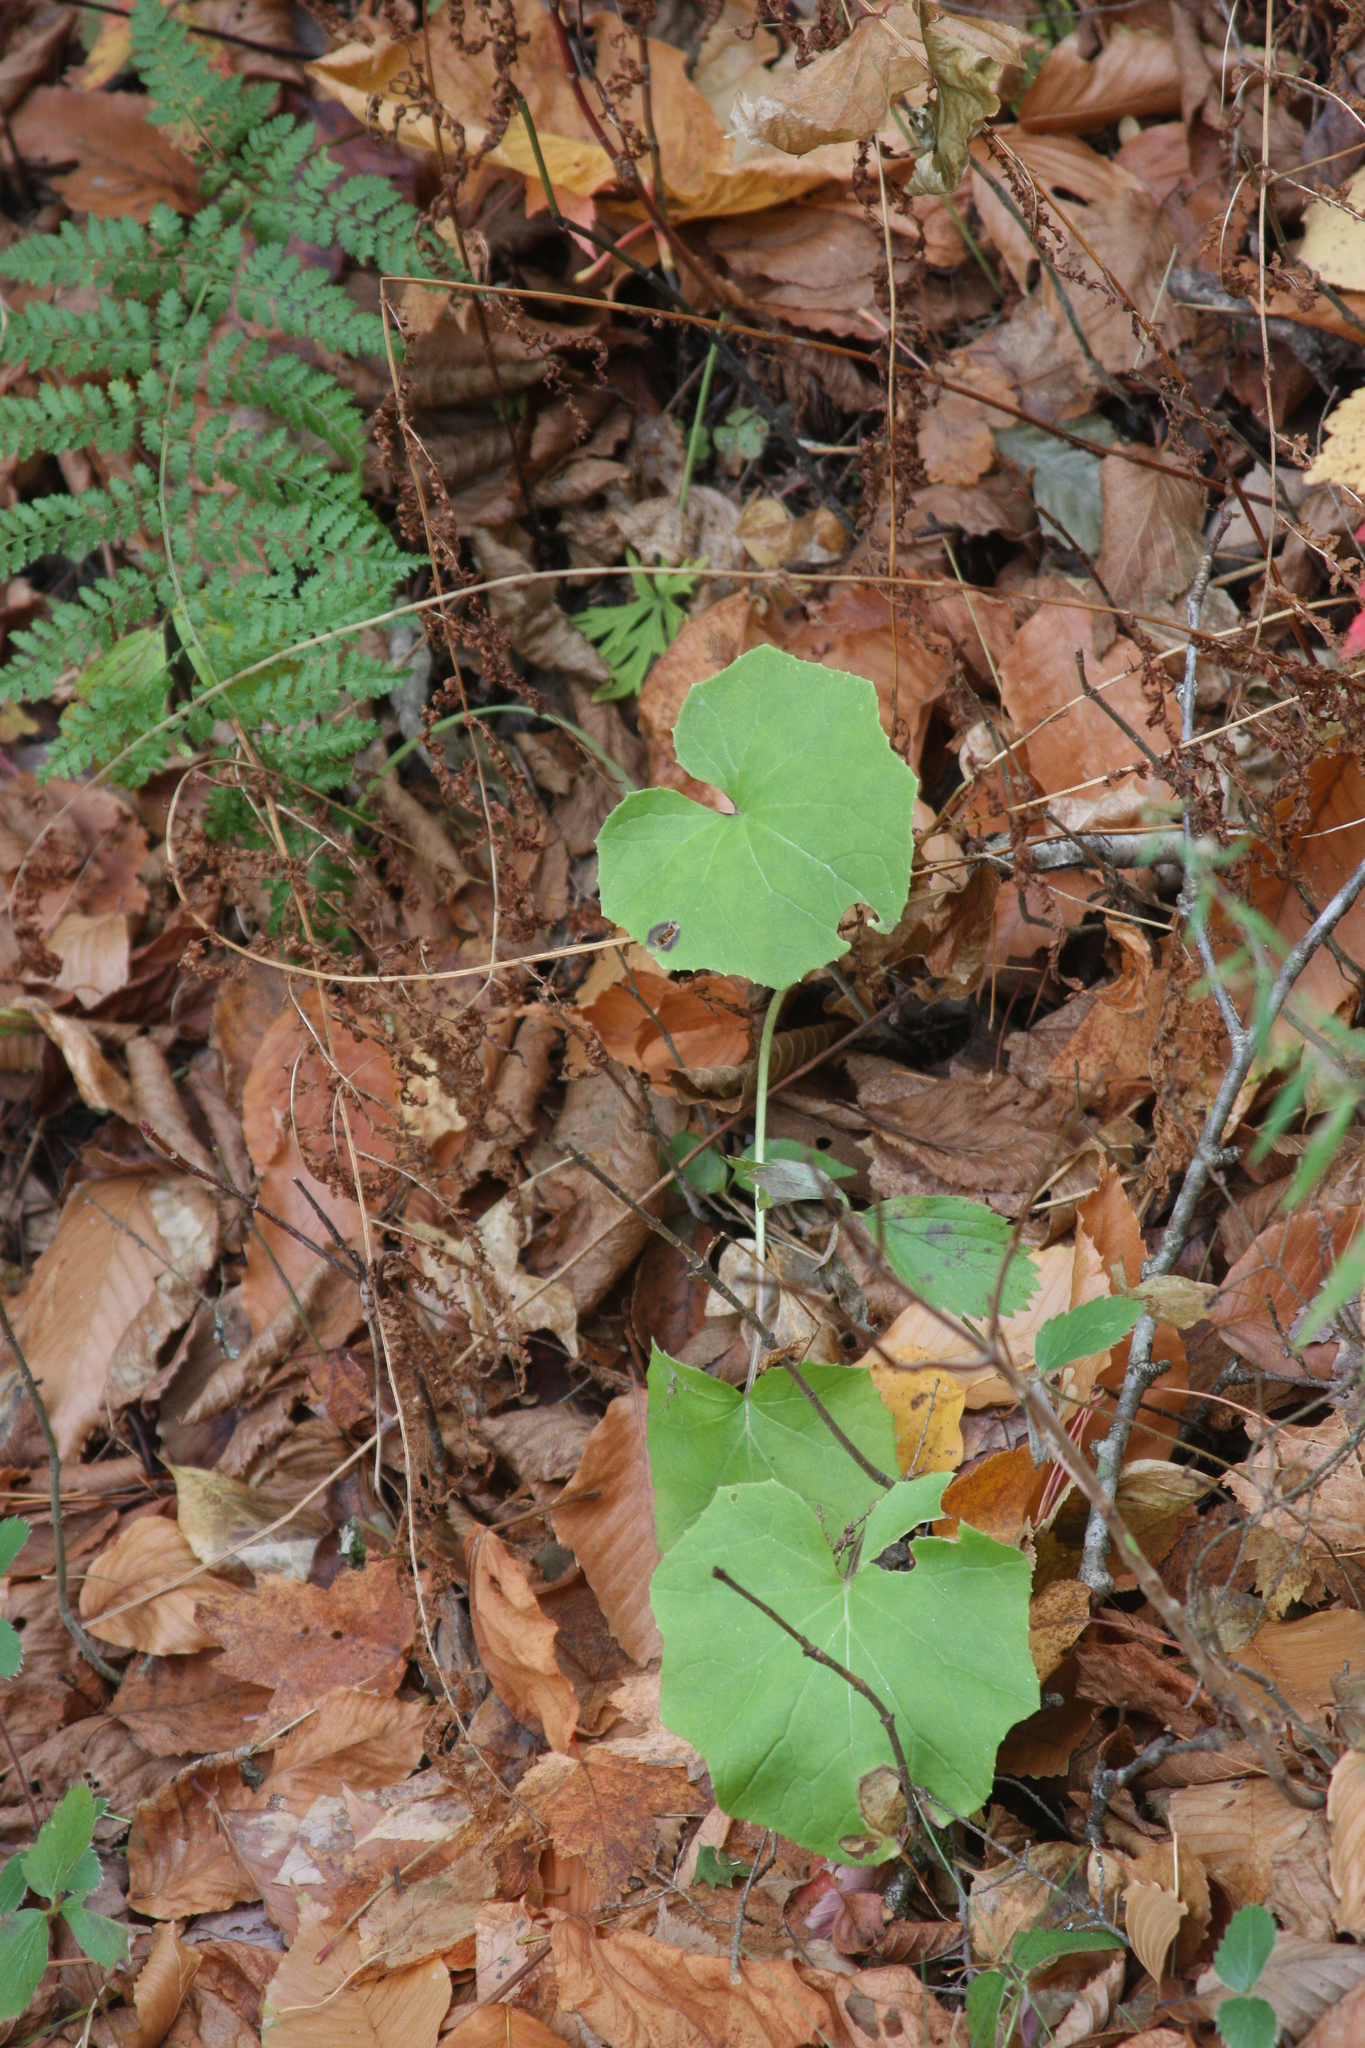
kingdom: Plantae
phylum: Tracheophyta
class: Magnoliopsida
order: Asterales
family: Asteraceae
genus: Tussilago
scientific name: Tussilago farfara
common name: Coltsfoot
